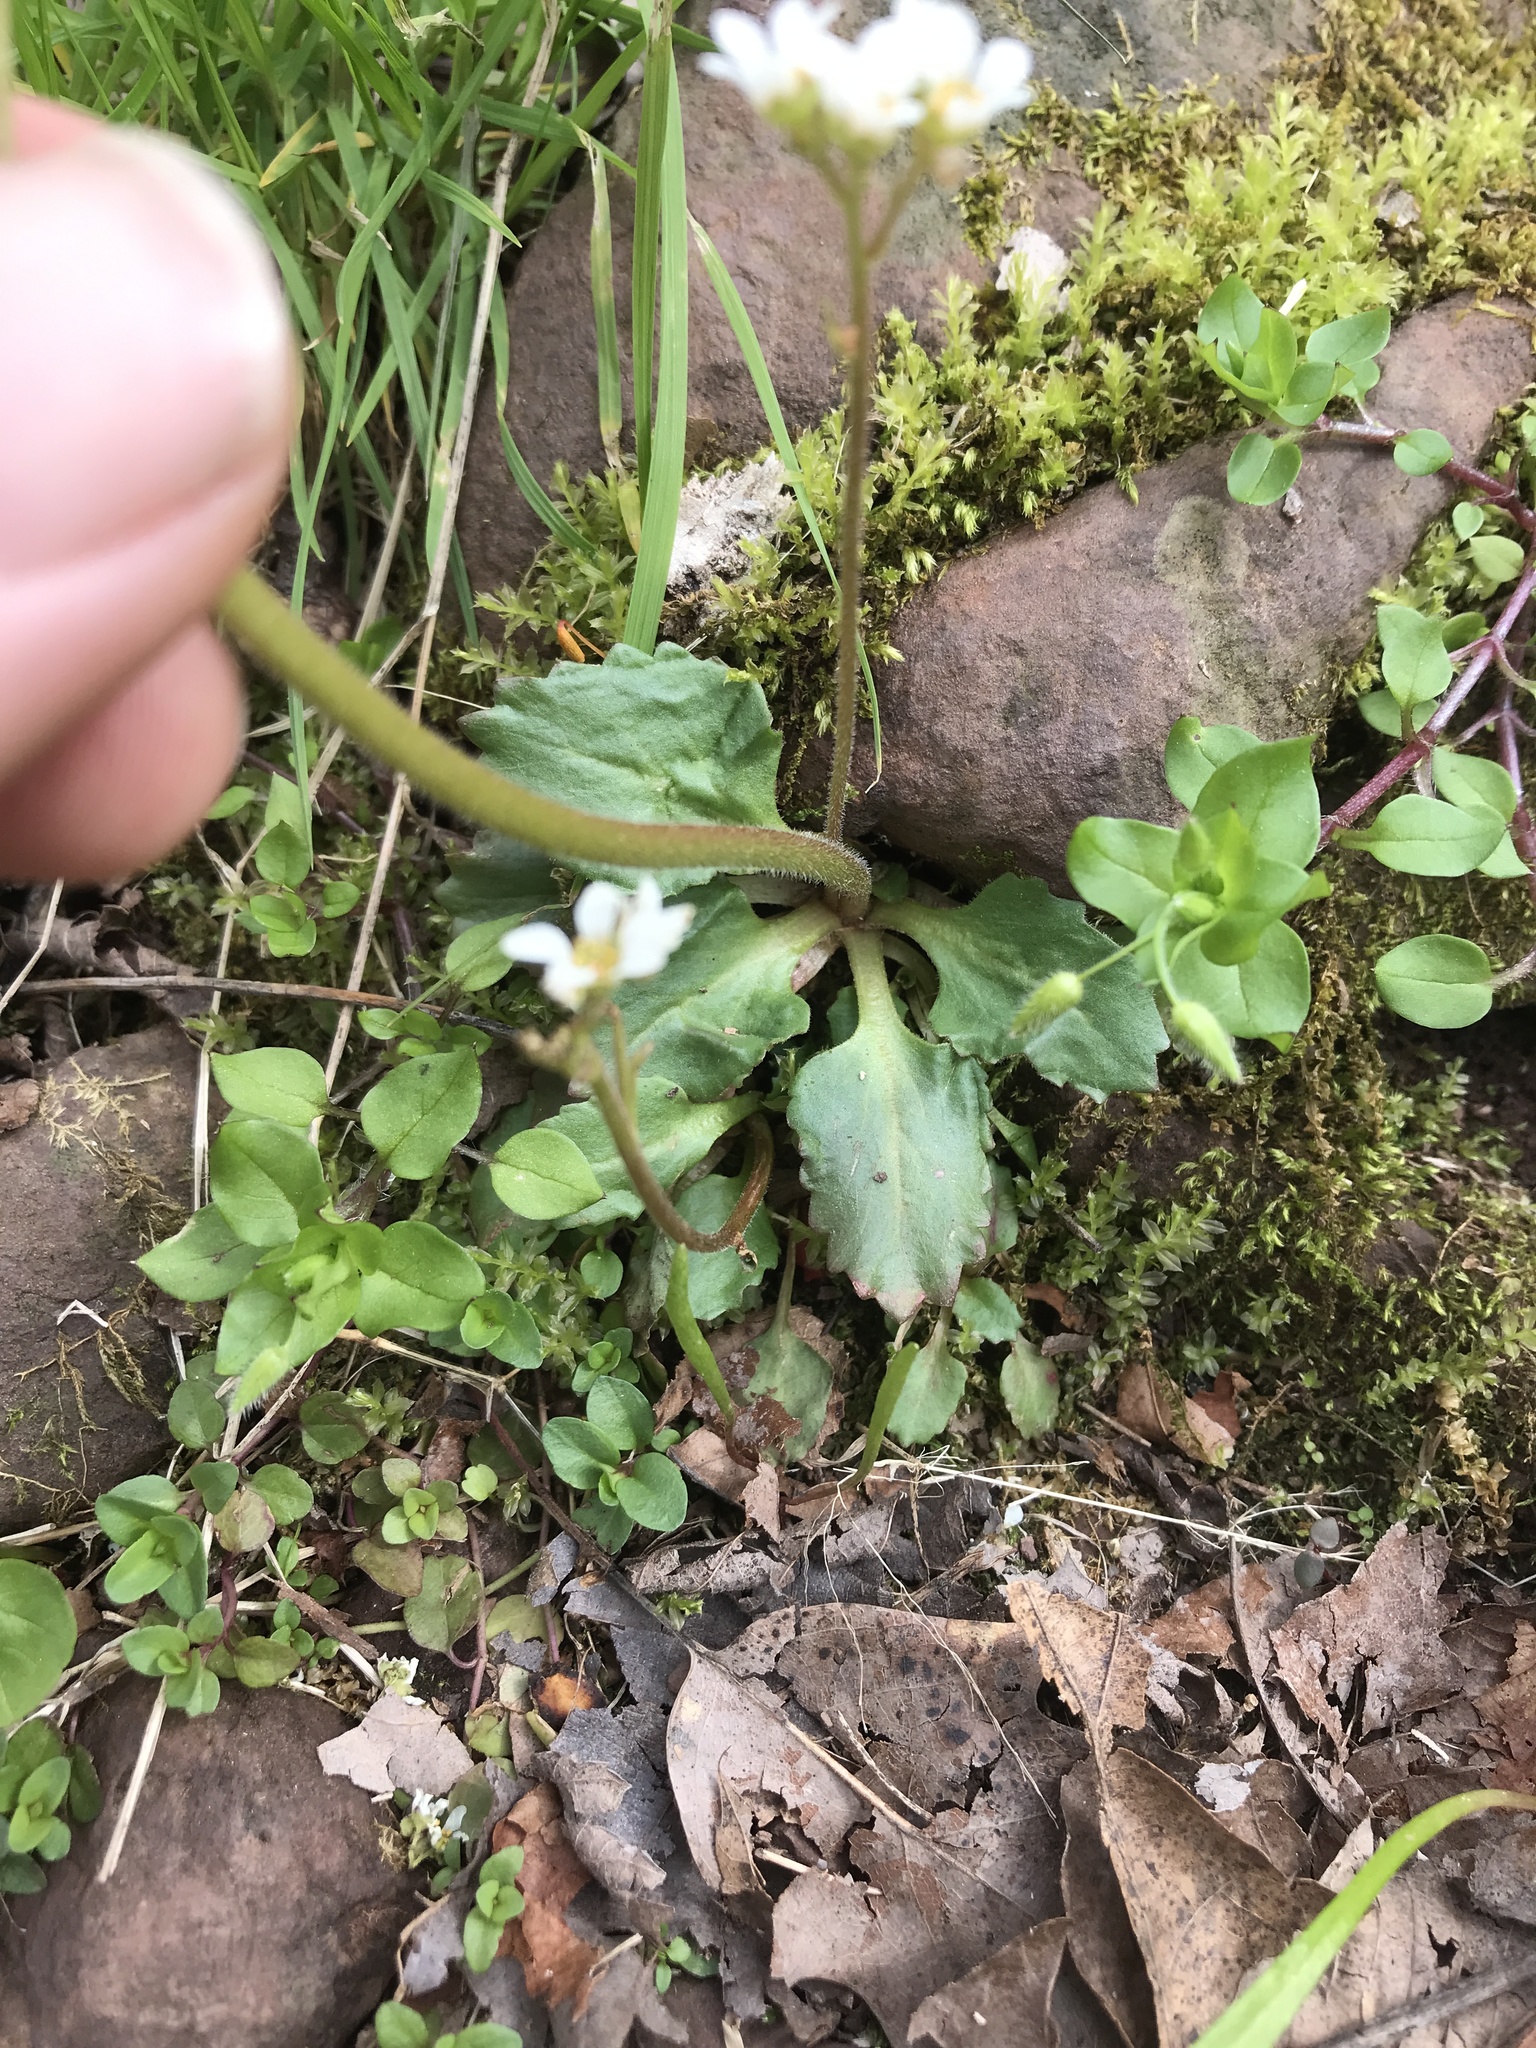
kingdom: Plantae
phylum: Tracheophyta
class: Magnoliopsida
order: Saxifragales
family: Saxifragaceae
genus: Micranthes
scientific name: Micranthes virginiensis
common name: Early saxifrage
